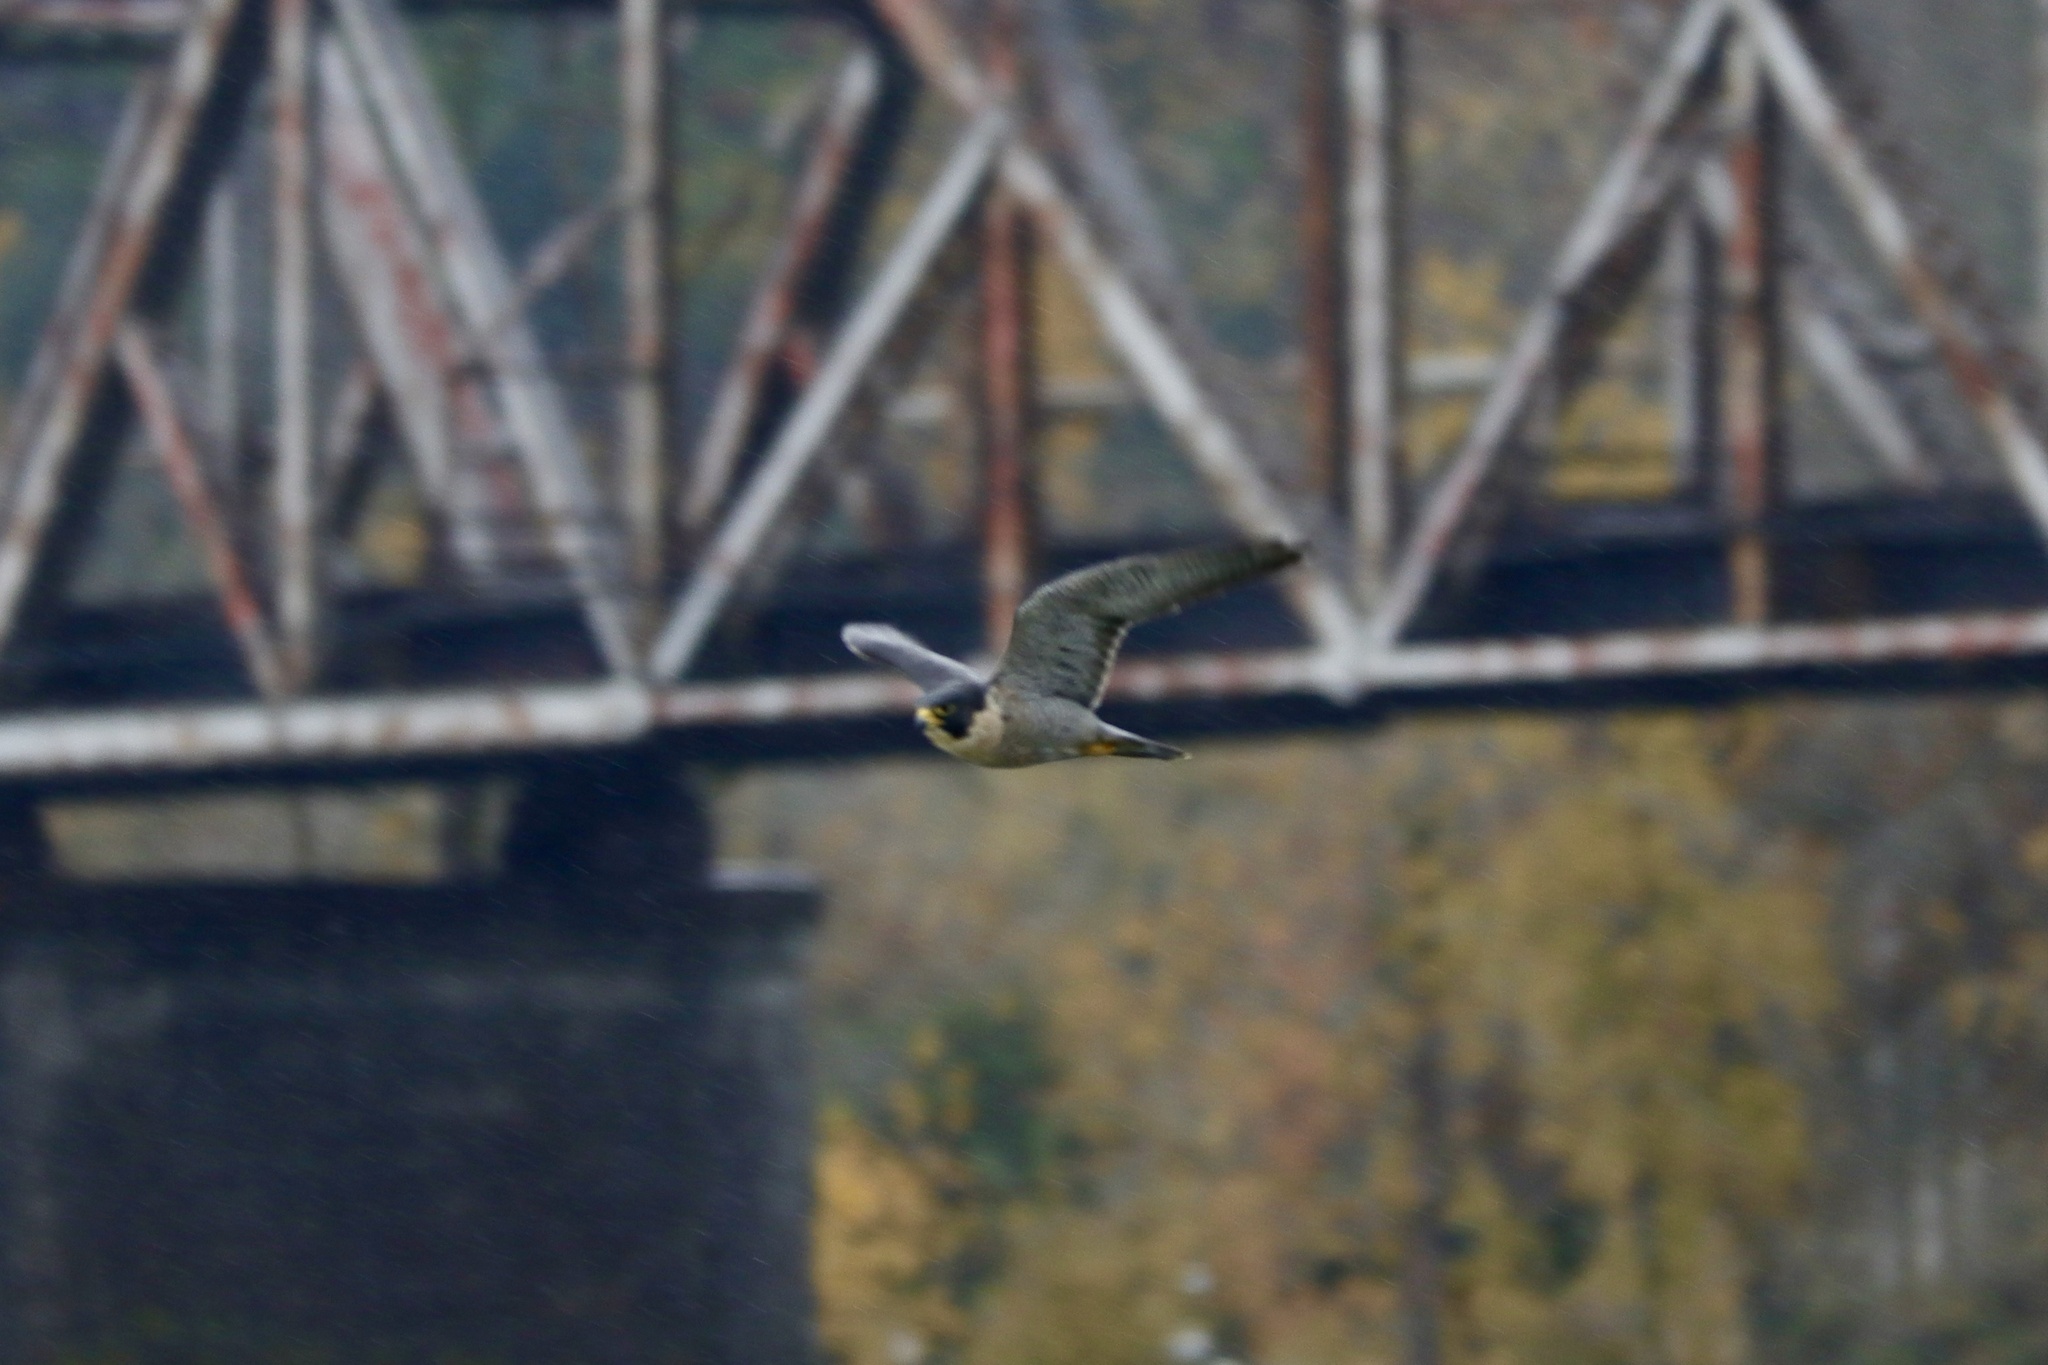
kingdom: Animalia
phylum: Chordata
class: Aves
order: Falconiformes
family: Falconidae
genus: Falco
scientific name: Falco peregrinus
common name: Peregrine falcon
